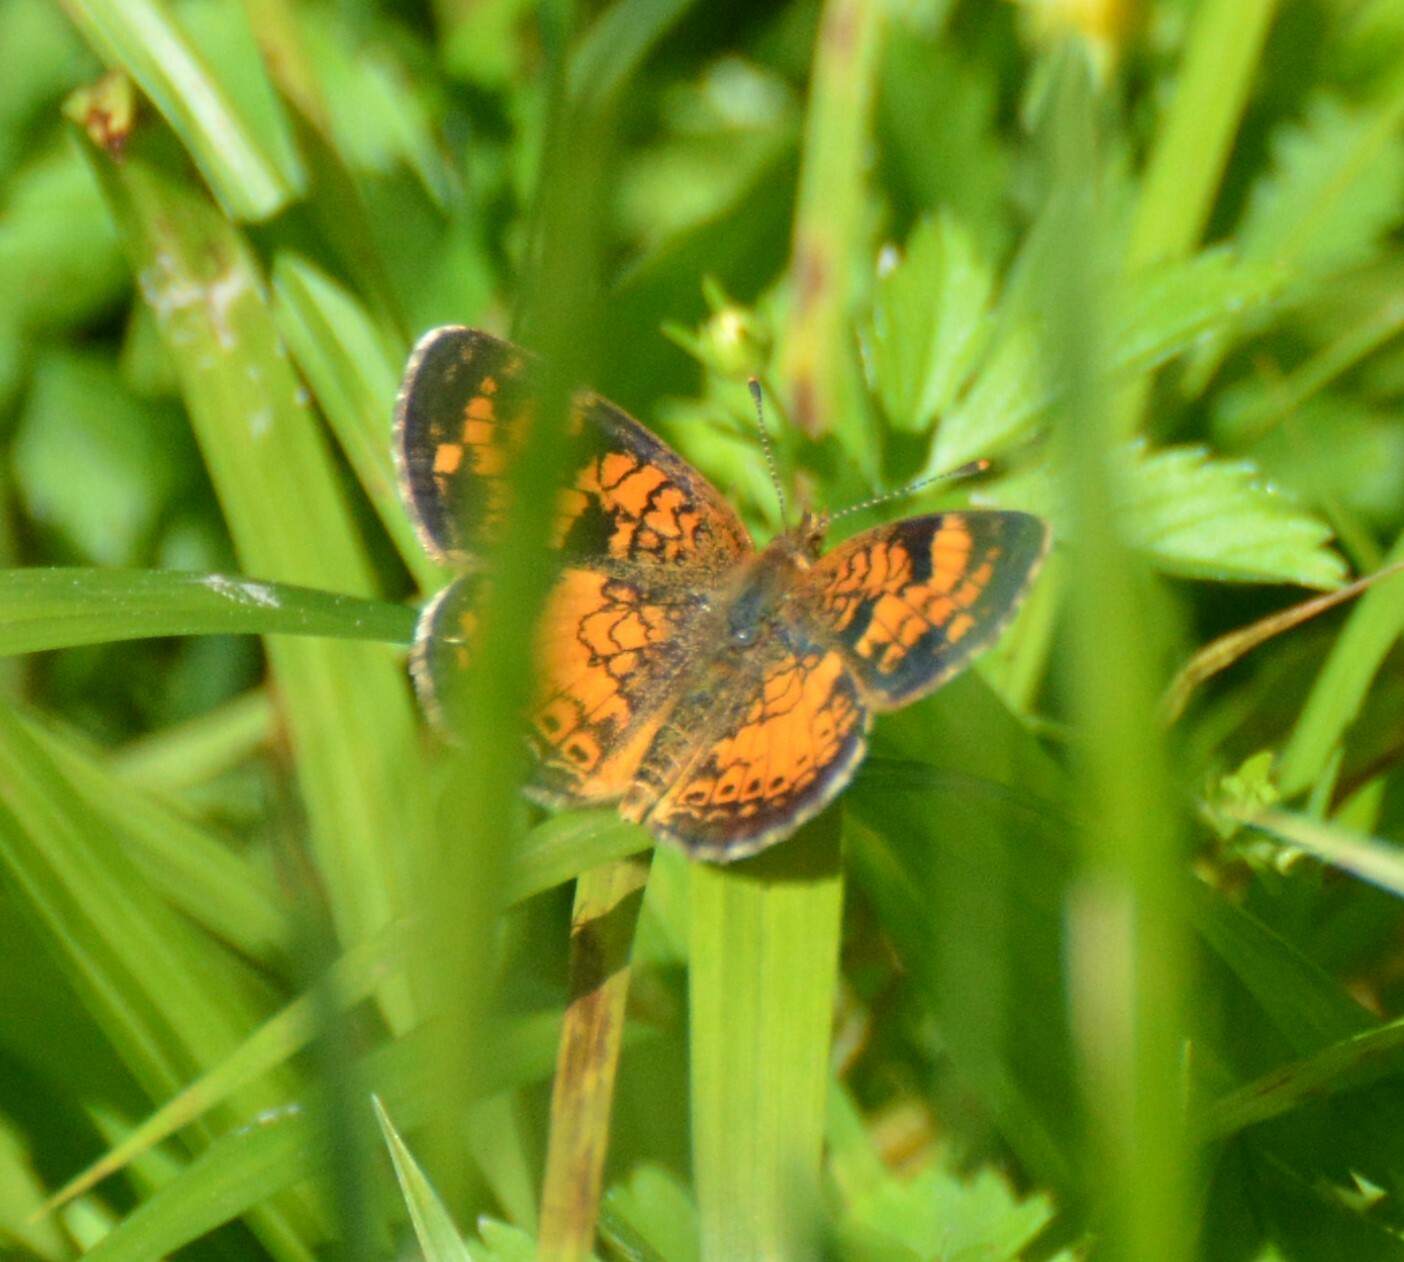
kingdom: Animalia
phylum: Arthropoda
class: Insecta
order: Lepidoptera
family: Nymphalidae
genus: Phyciodes
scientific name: Phyciodes tharos
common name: Pearl crescent
